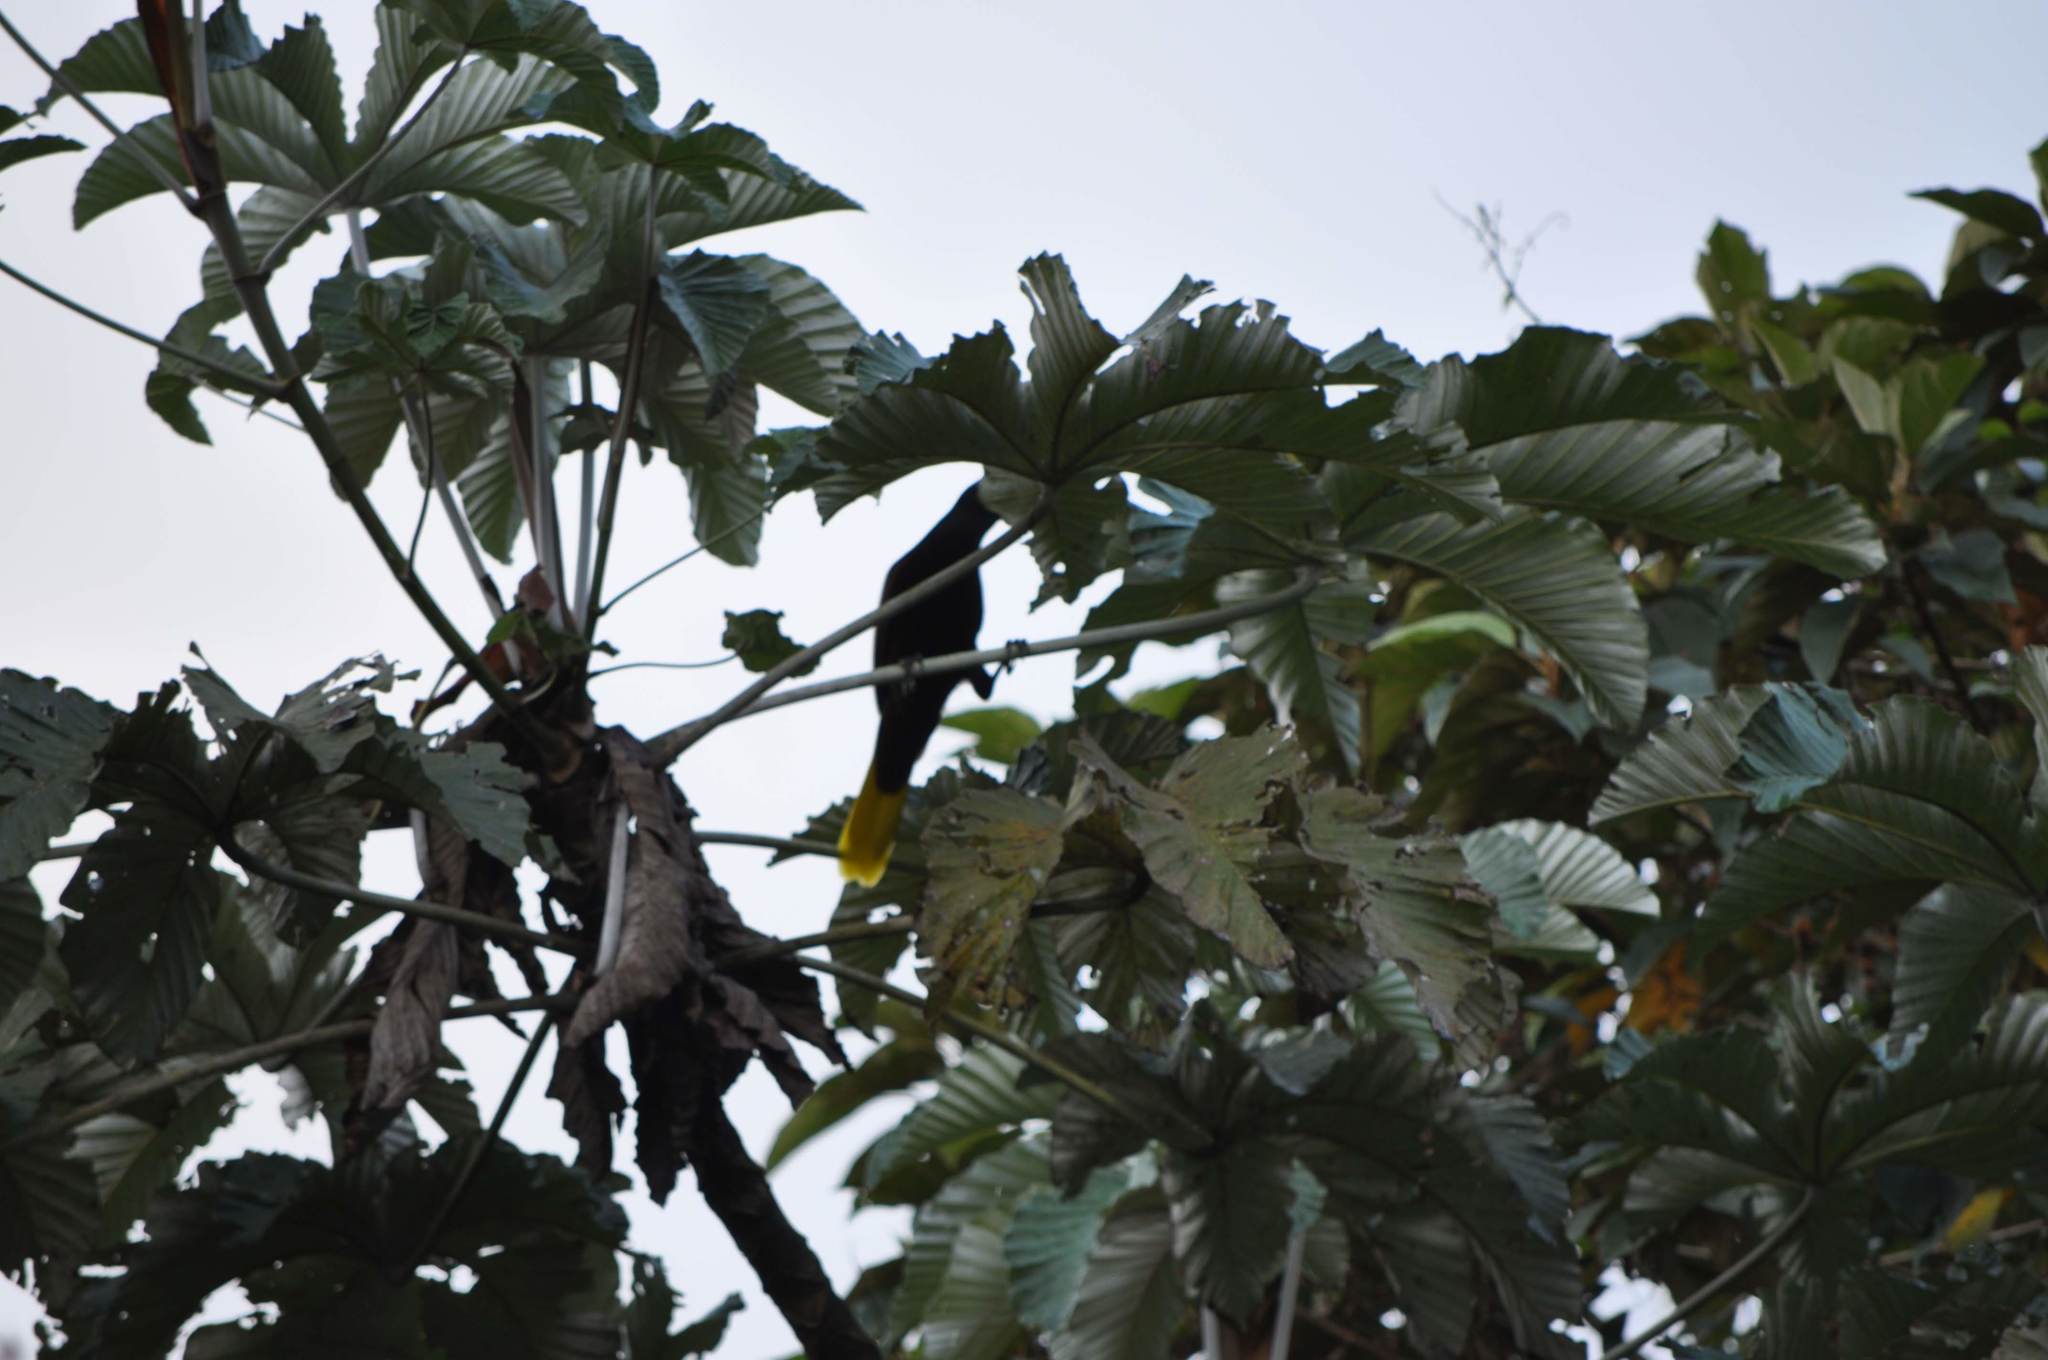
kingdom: Animalia
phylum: Chordata
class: Aves
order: Passeriformes
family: Icteridae
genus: Psarocolius
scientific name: Psarocolius montezuma
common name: Montezuma oropendola
